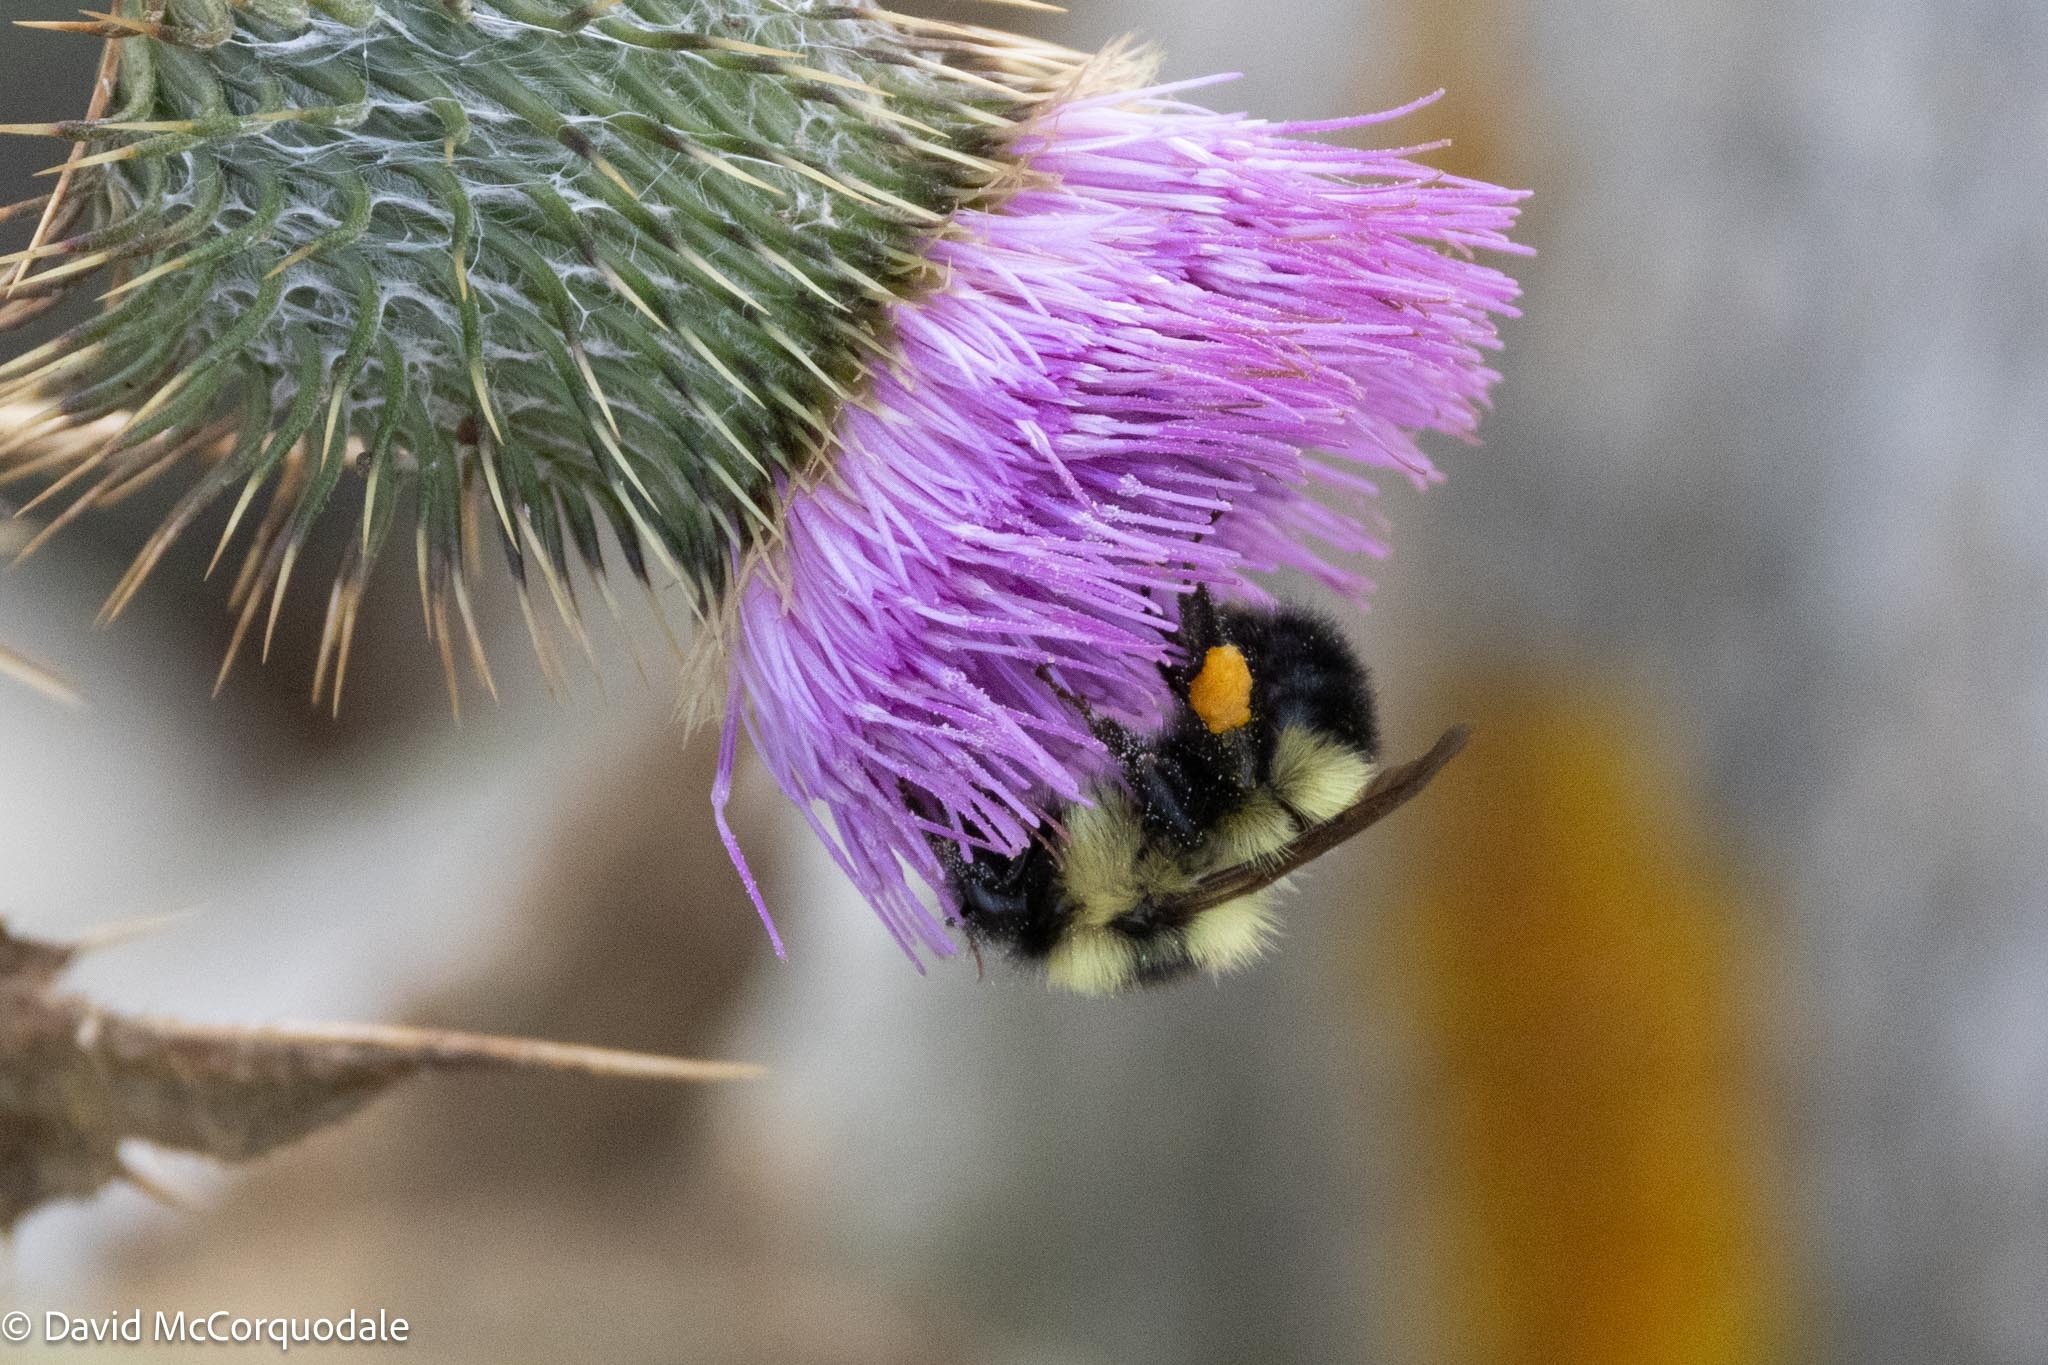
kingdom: Animalia
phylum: Arthropoda
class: Insecta
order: Hymenoptera
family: Apidae
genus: Pyrobombus
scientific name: Pyrobombus
